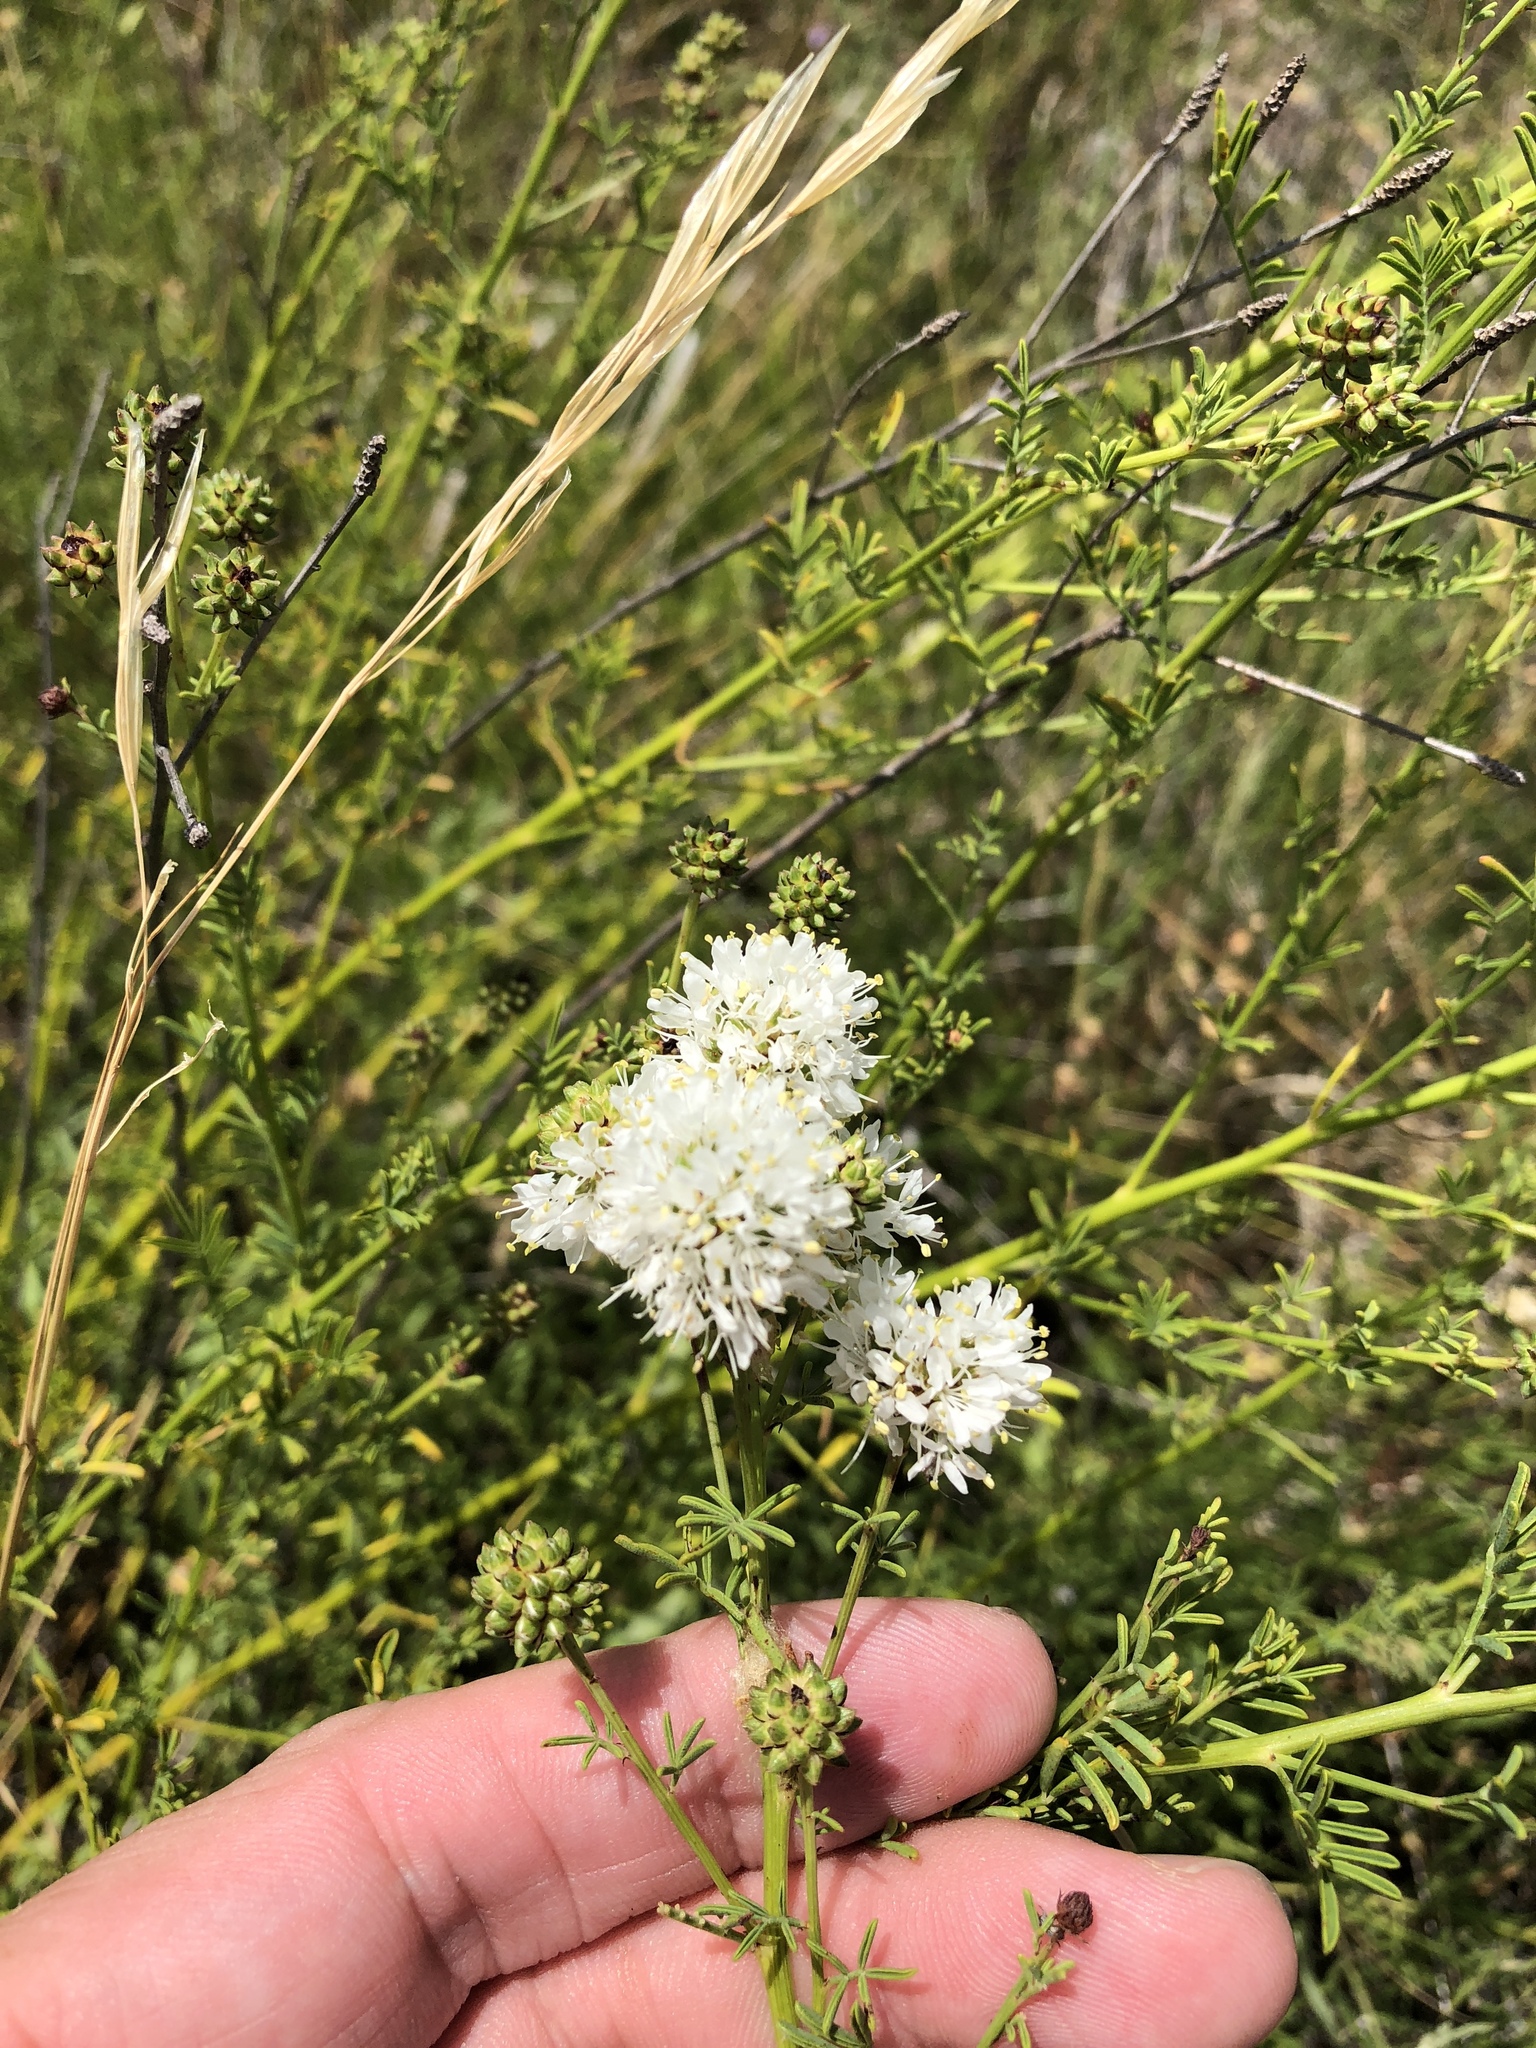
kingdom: Plantae
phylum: Tracheophyta
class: Magnoliopsida
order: Fabales
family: Fabaceae
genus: Dalea
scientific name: Dalea multiflora
